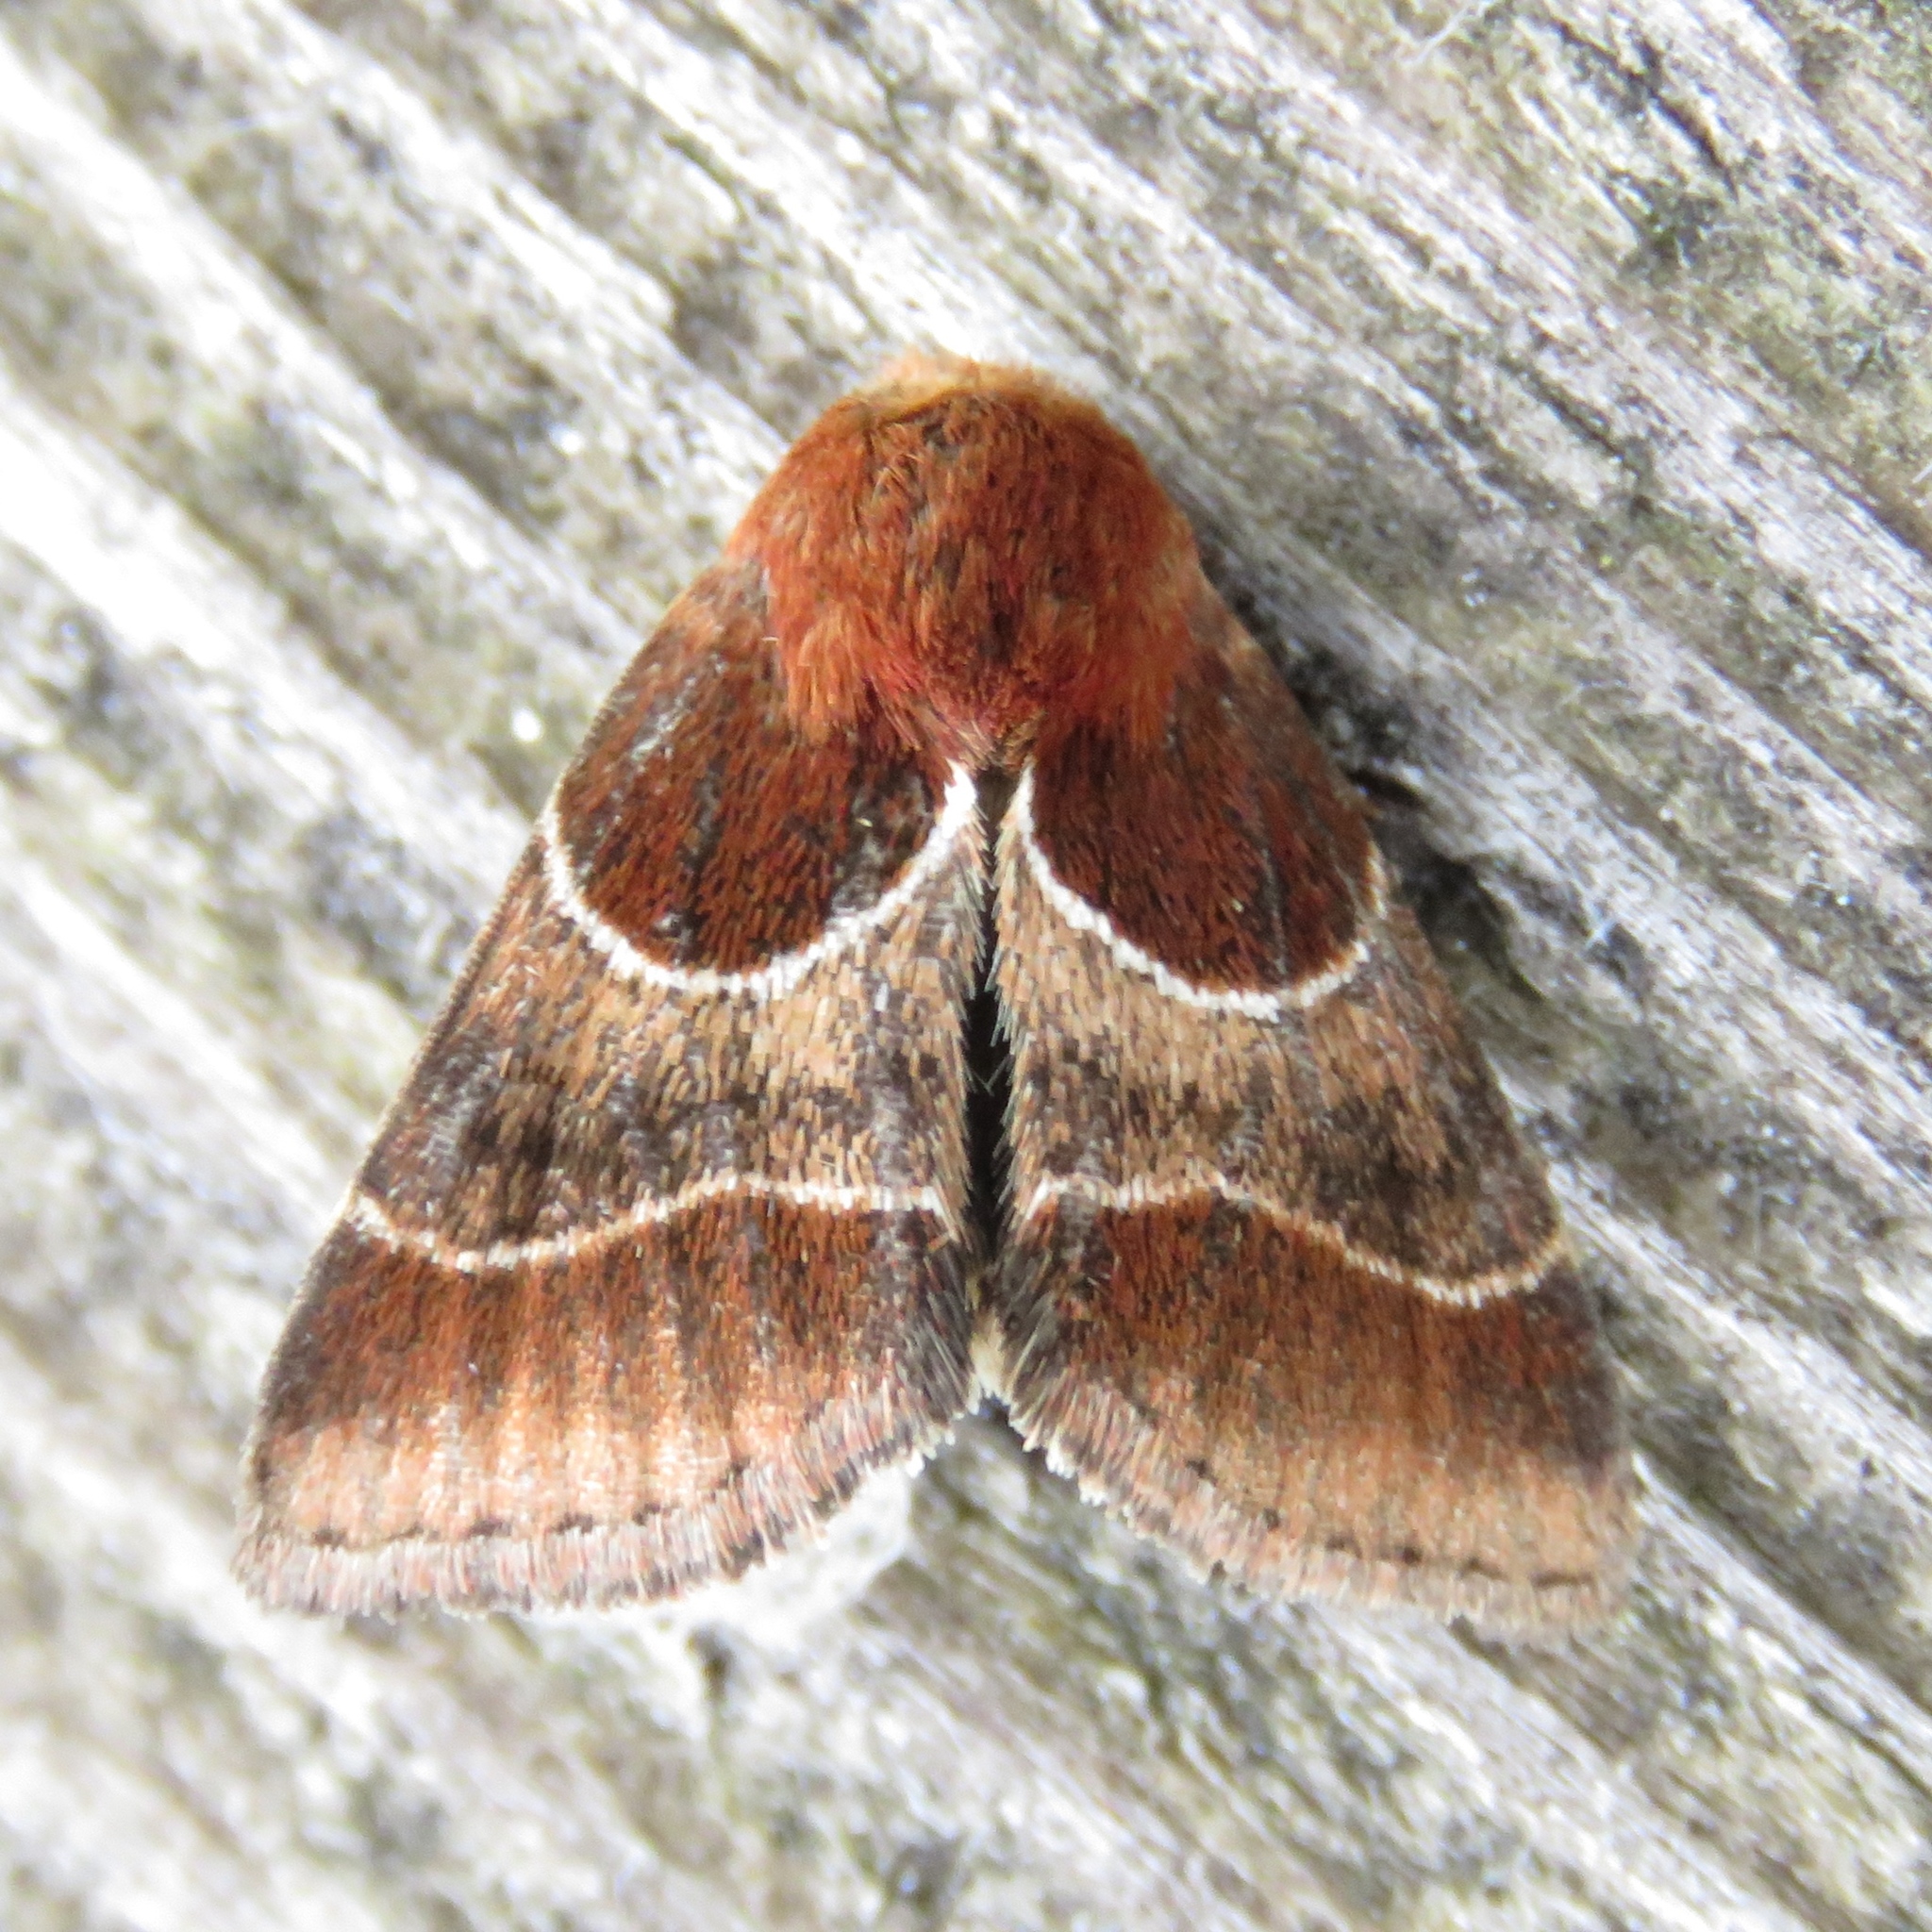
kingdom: Animalia
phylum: Arthropoda
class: Insecta
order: Lepidoptera
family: Noctuidae
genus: Schinia
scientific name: Schinia arcigera
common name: Arcigera flower moth
